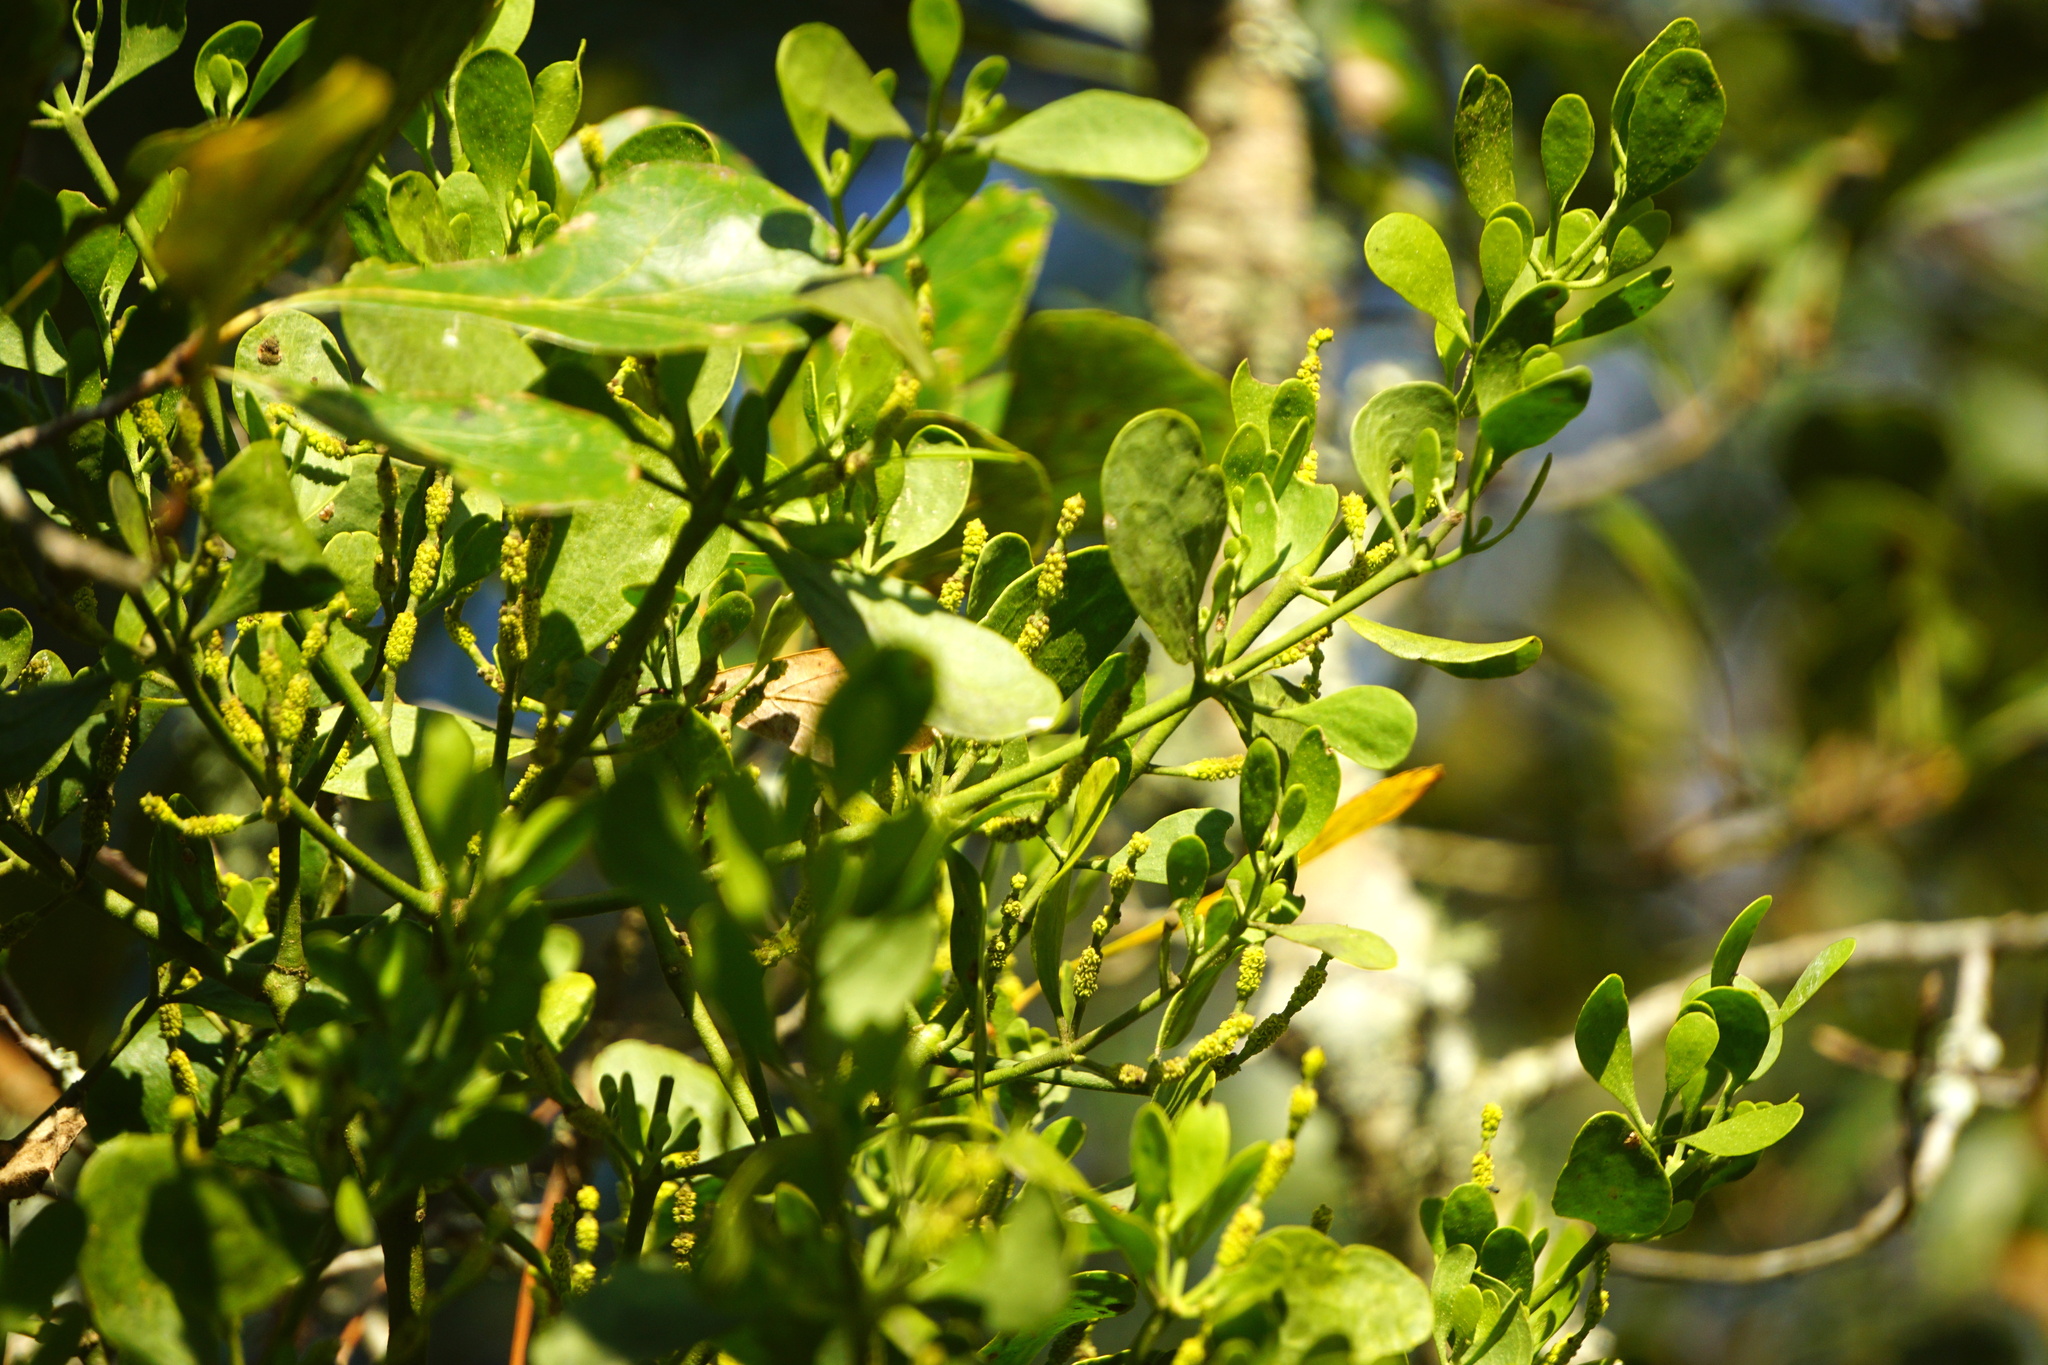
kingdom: Plantae
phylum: Tracheophyta
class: Magnoliopsida
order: Santalales
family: Viscaceae
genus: Phoradendron
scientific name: Phoradendron leucarpum
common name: Pacific mistletoe
